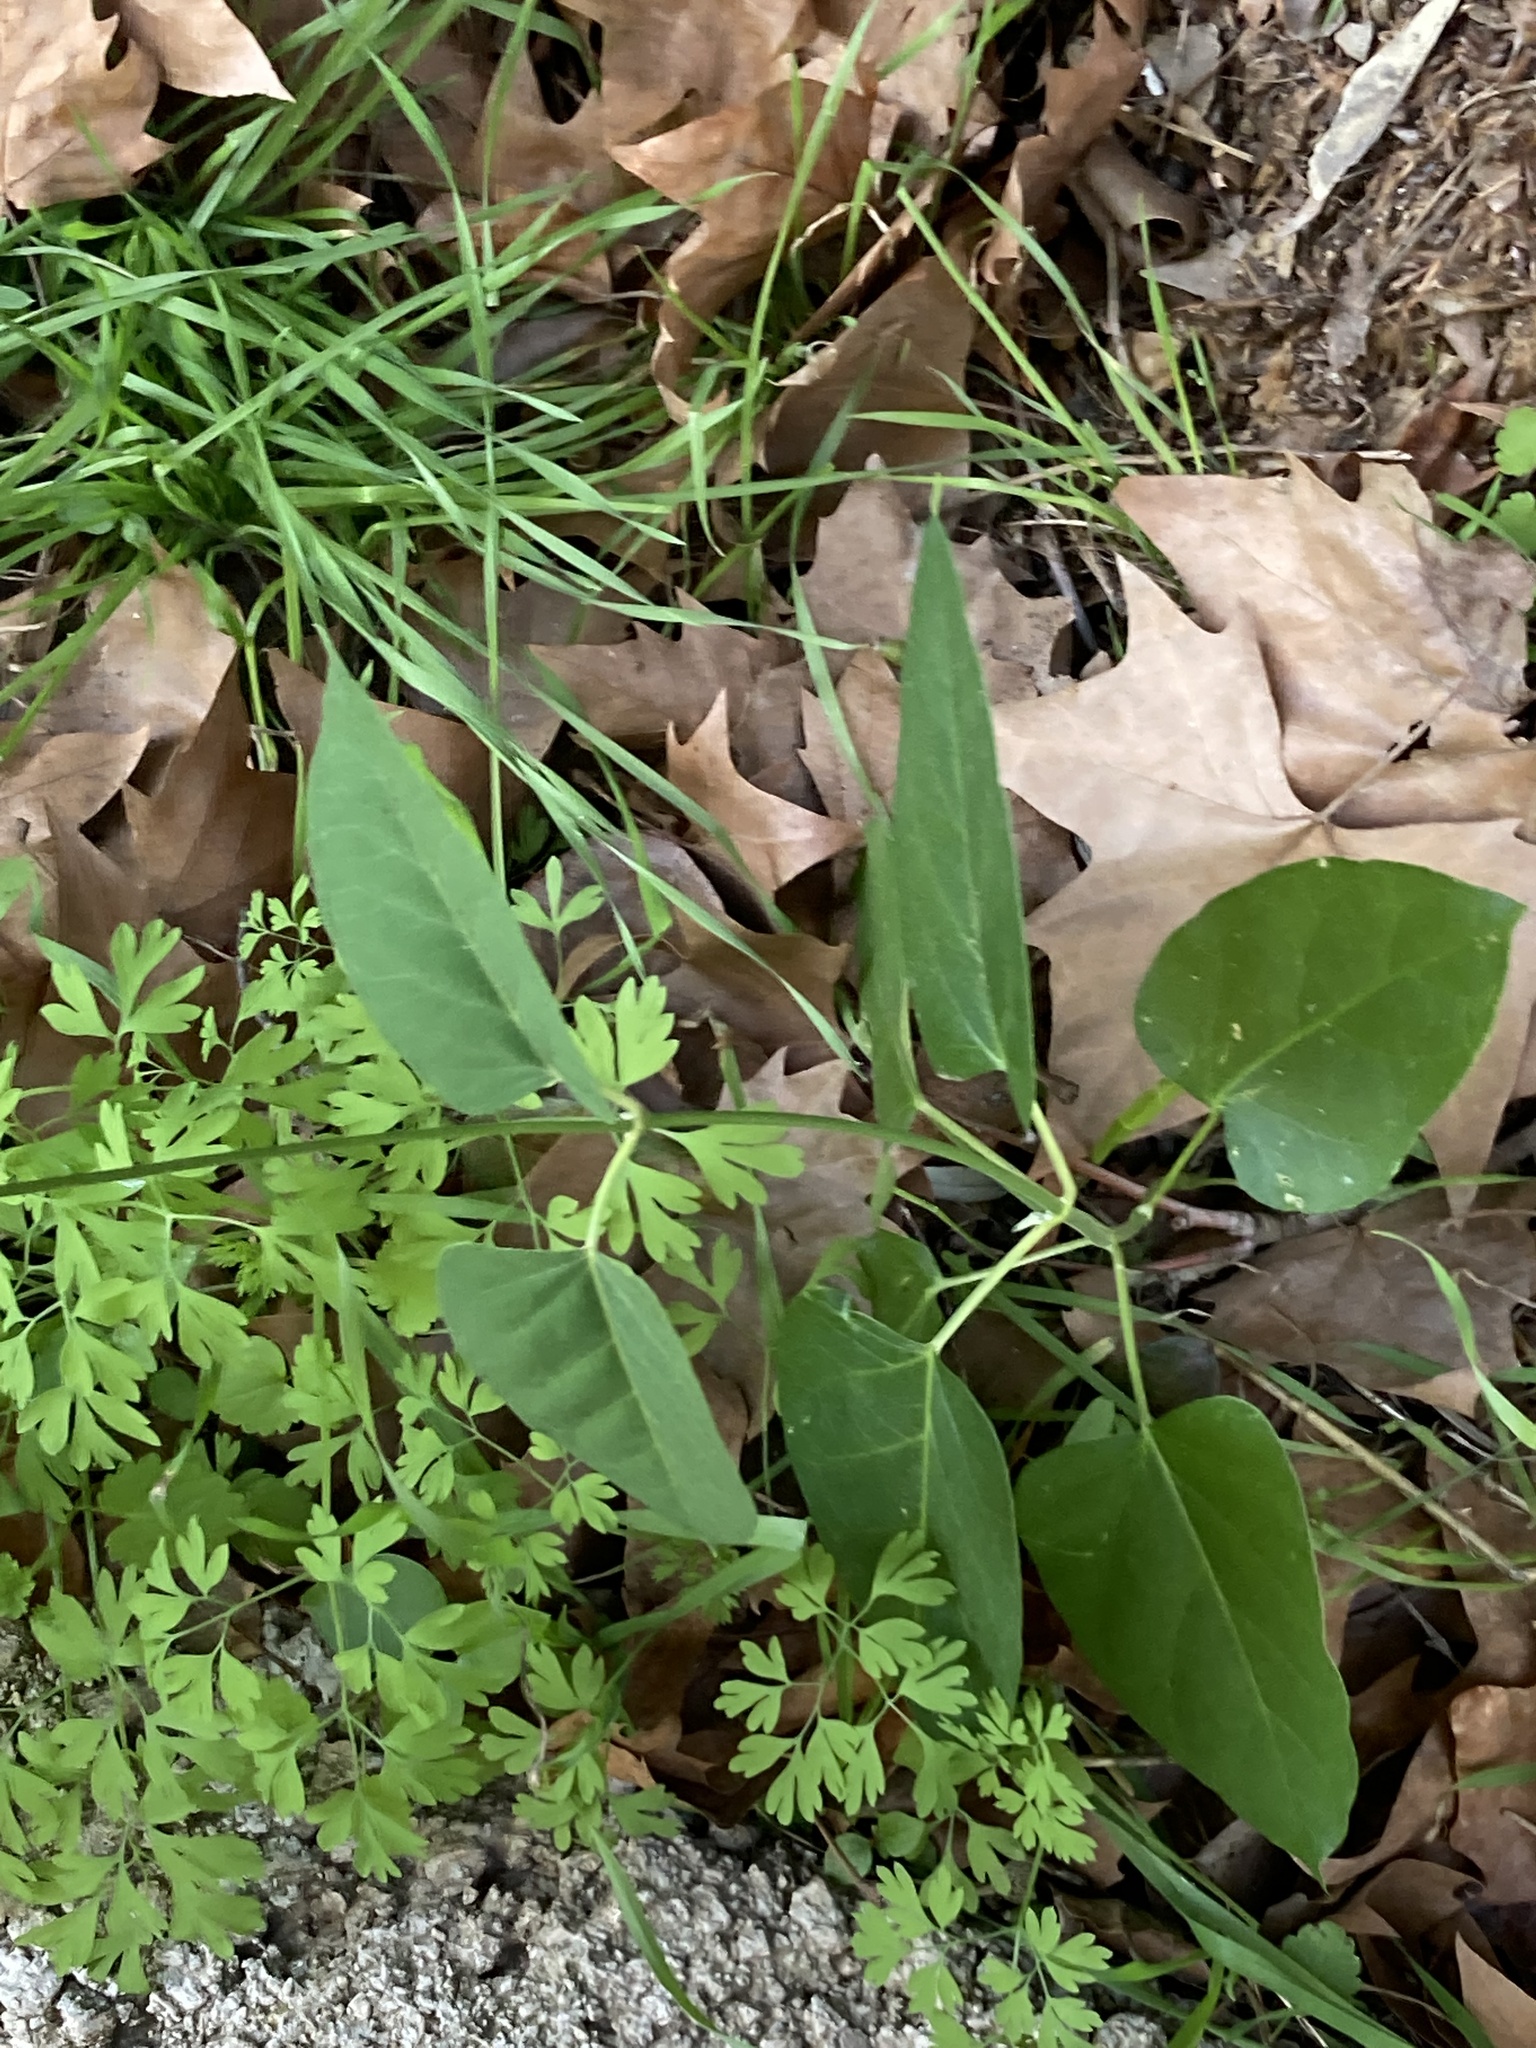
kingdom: Plantae
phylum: Tracheophyta
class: Magnoliopsida
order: Gentianales
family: Apocynaceae
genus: Araujia
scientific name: Araujia sericifera
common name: White bladderflower
